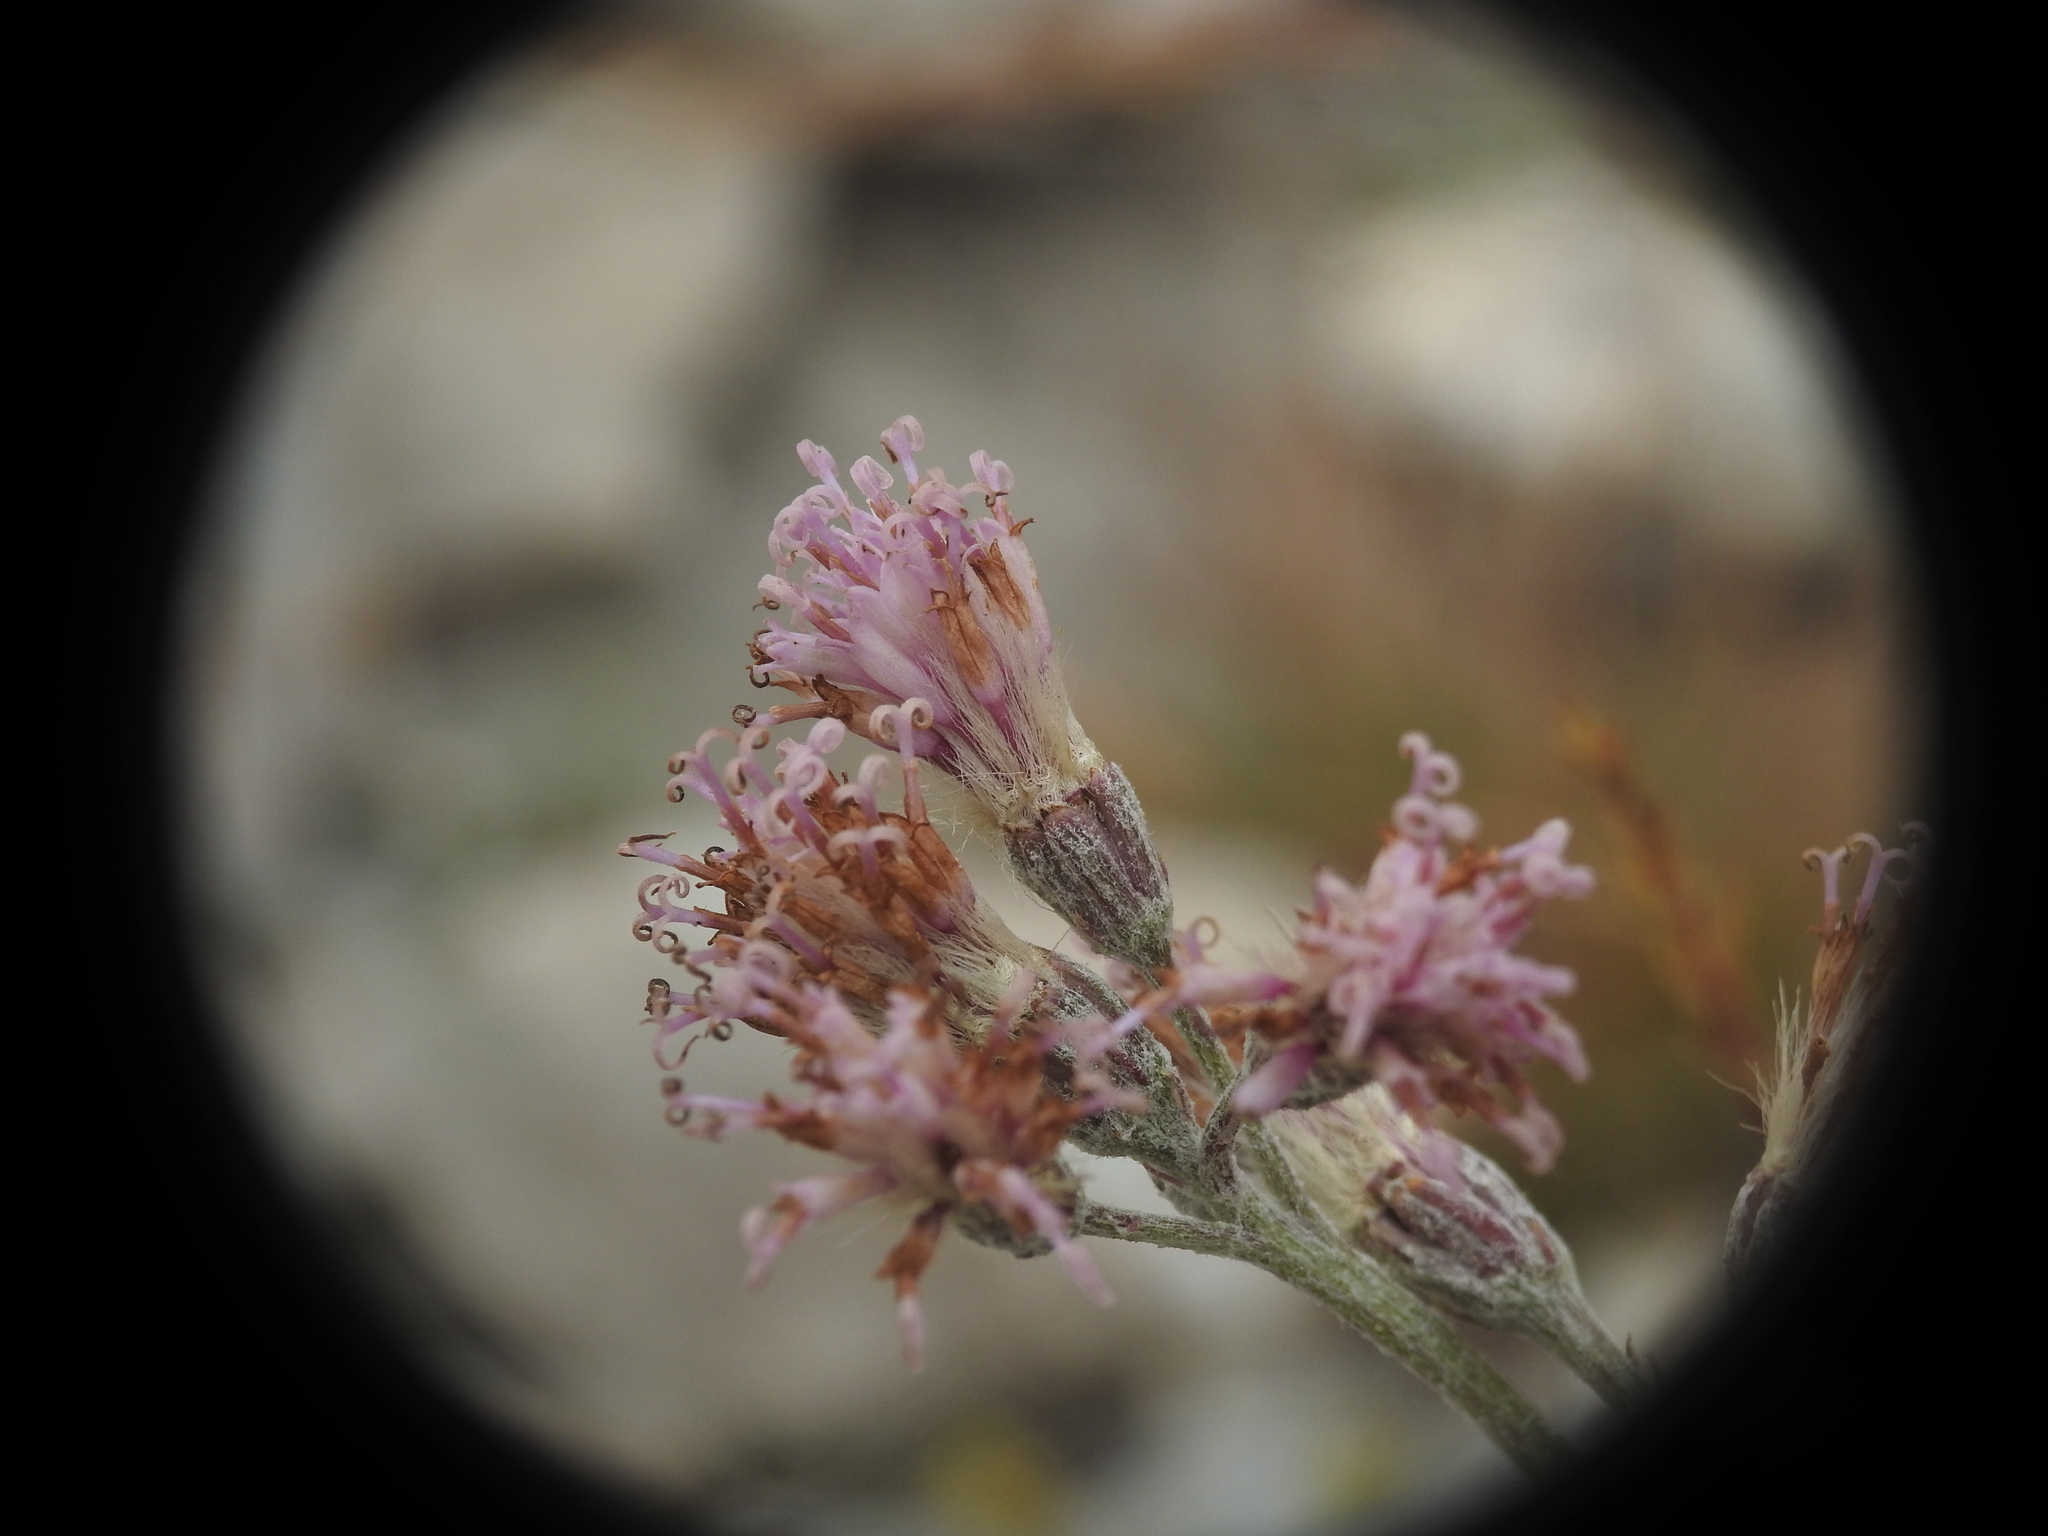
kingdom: Plantae
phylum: Tracheophyta
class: Magnoliopsida
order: Asterales
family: Asteraceae
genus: Adenostyles
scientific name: Adenostyles leucophylla
